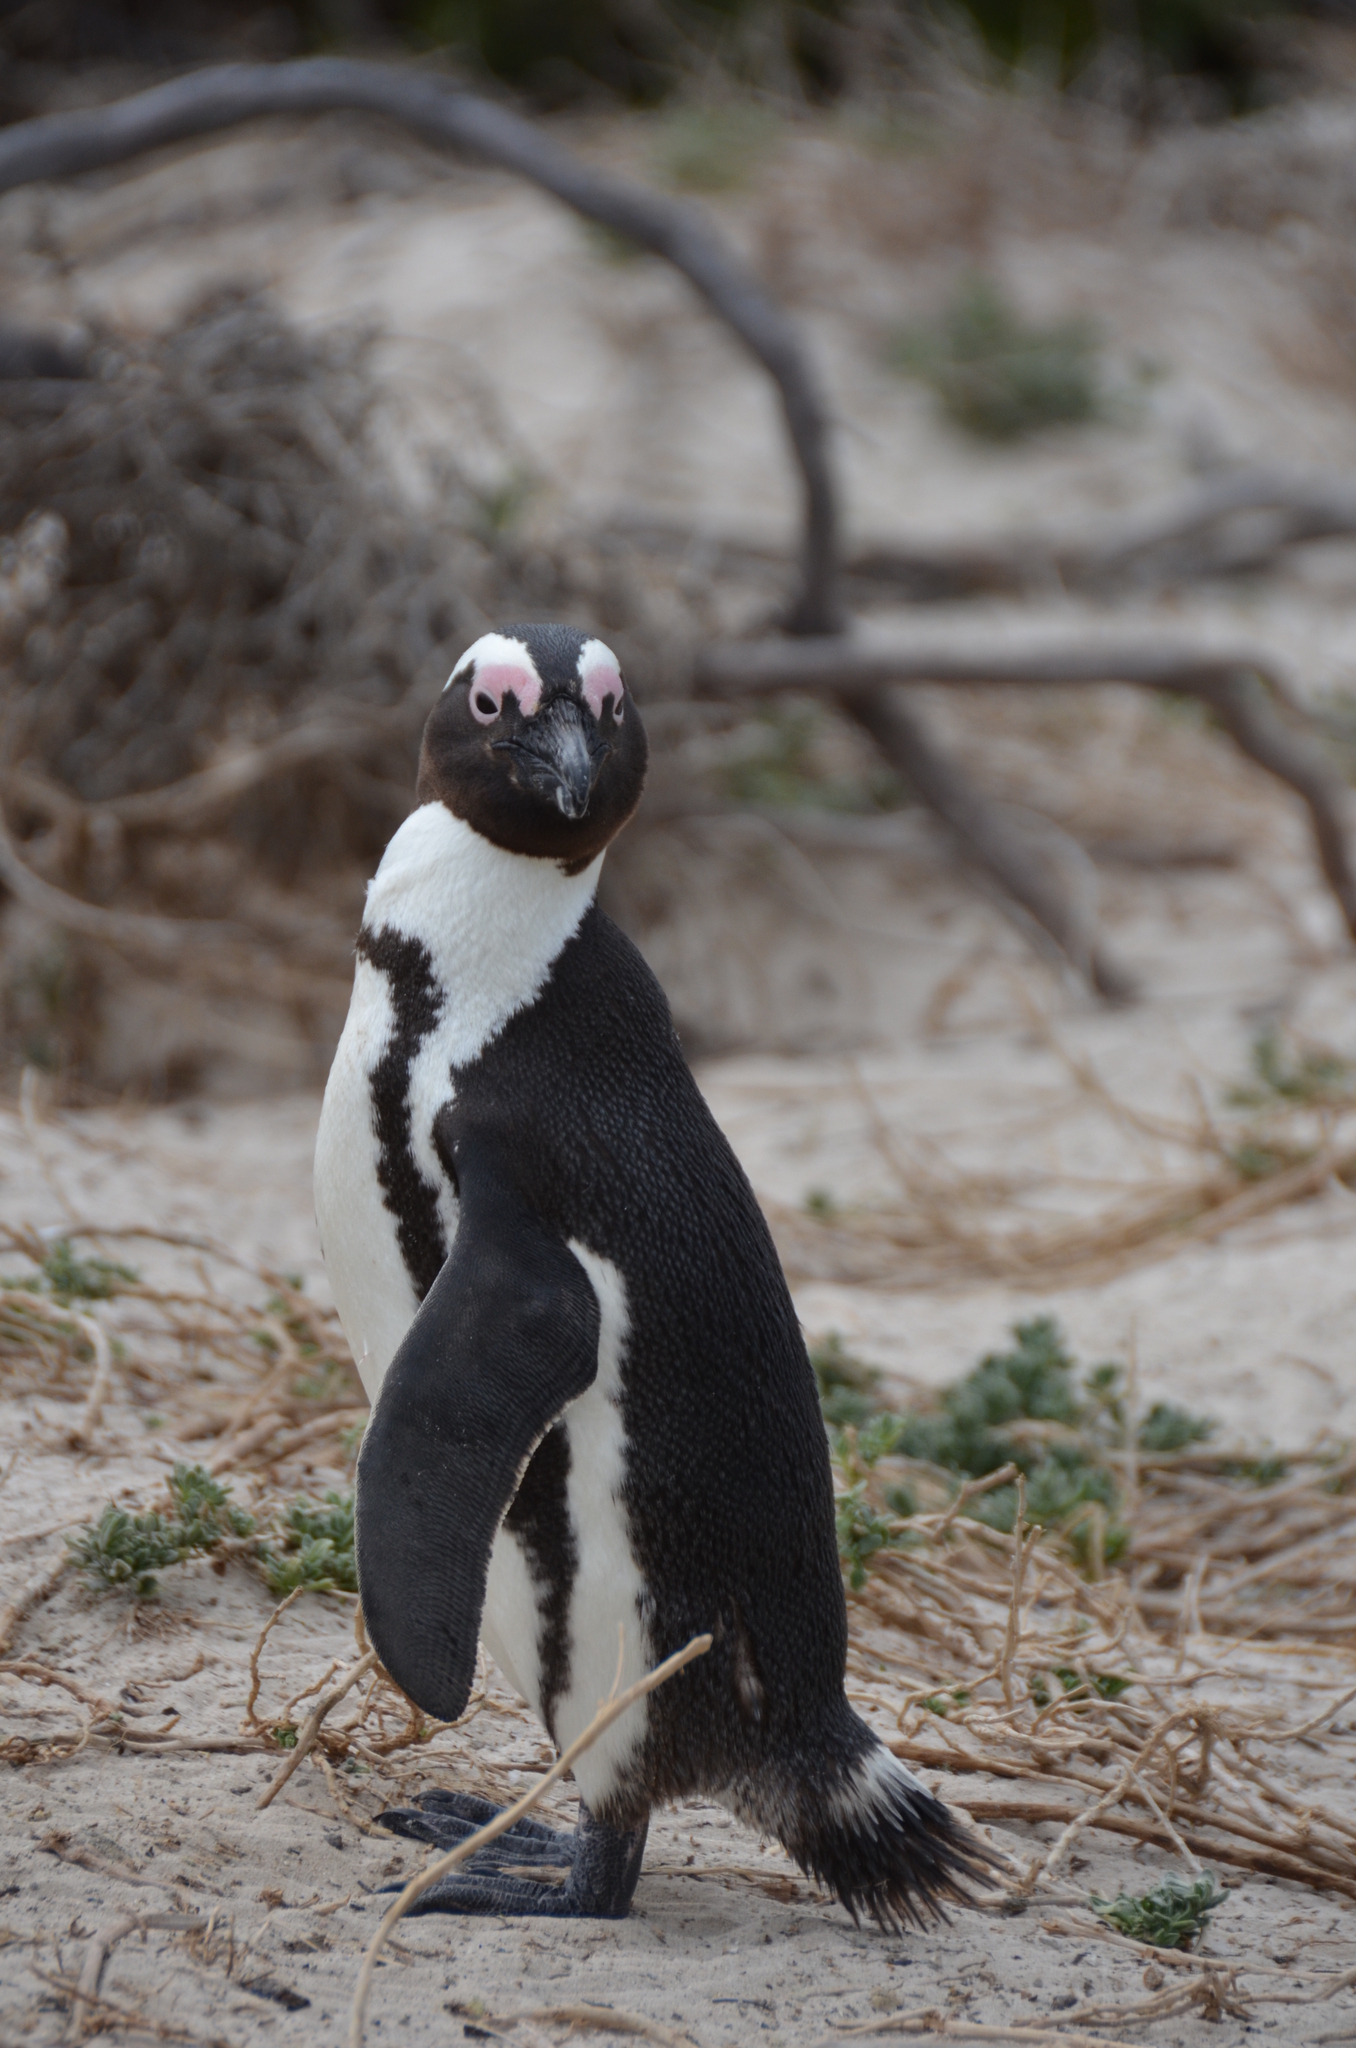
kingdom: Animalia
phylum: Chordata
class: Aves
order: Sphenisciformes
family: Spheniscidae
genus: Spheniscus
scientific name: Spheniscus demersus
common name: African penguin
